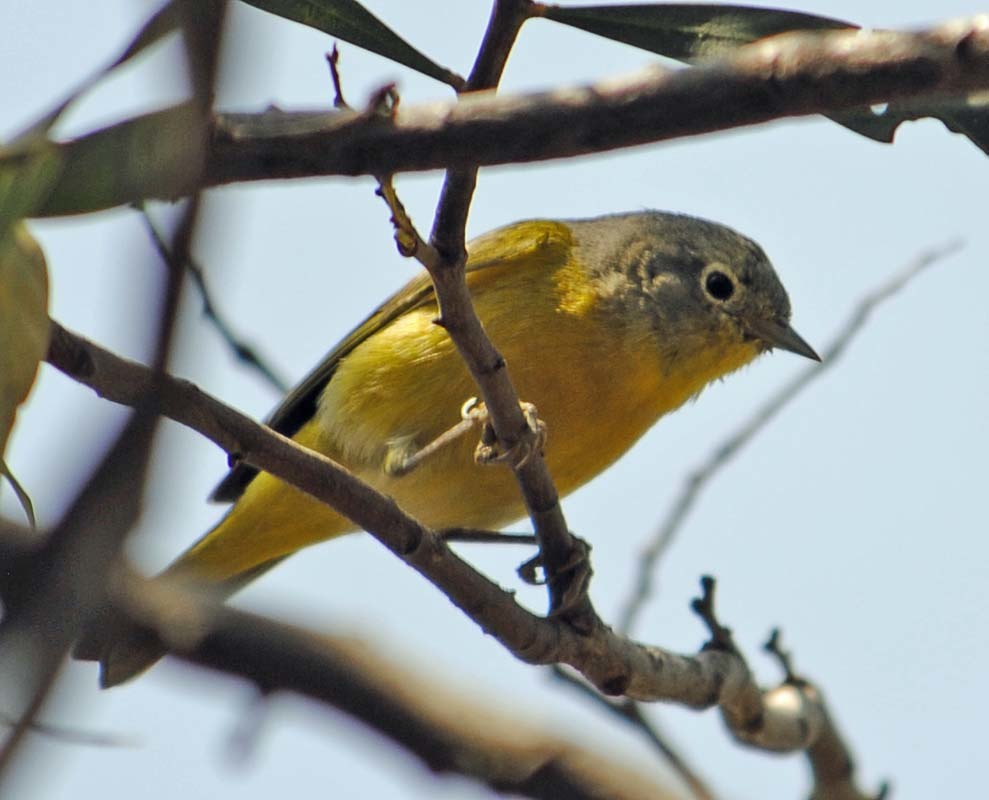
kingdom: Animalia
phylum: Chordata
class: Aves
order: Passeriformes
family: Parulidae
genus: Leiothlypis
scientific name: Leiothlypis ruficapilla
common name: Nashville warbler
